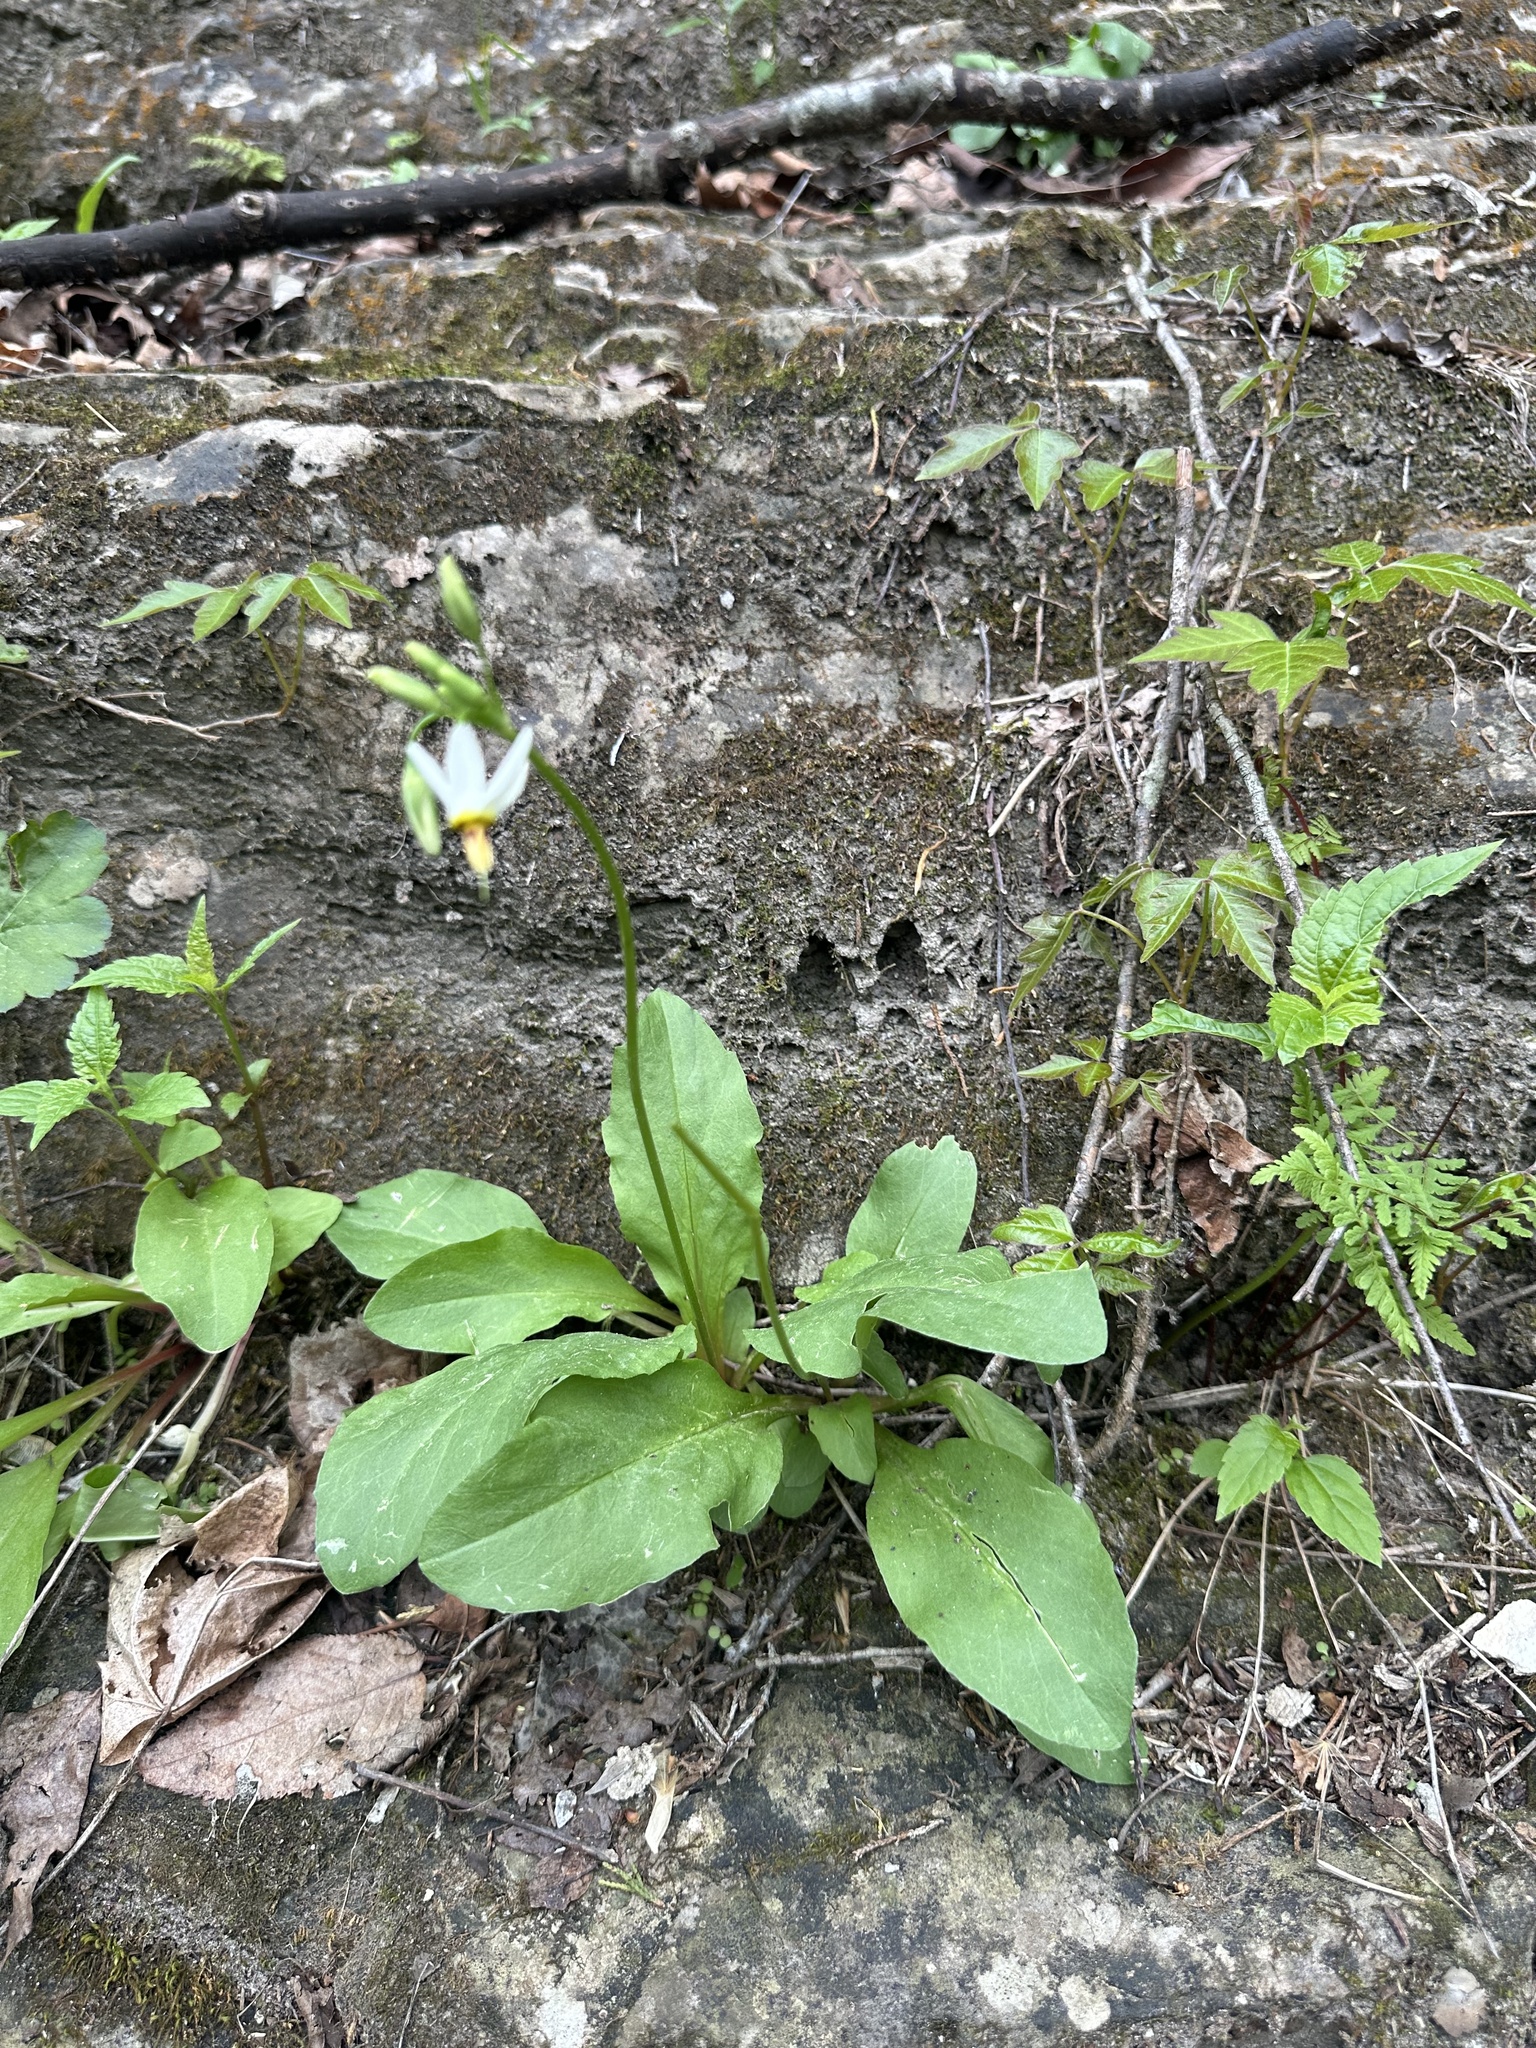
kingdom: Plantae
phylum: Tracheophyta
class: Magnoliopsida
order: Ericales
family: Primulaceae
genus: Dodecatheon
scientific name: Dodecatheon meadia
